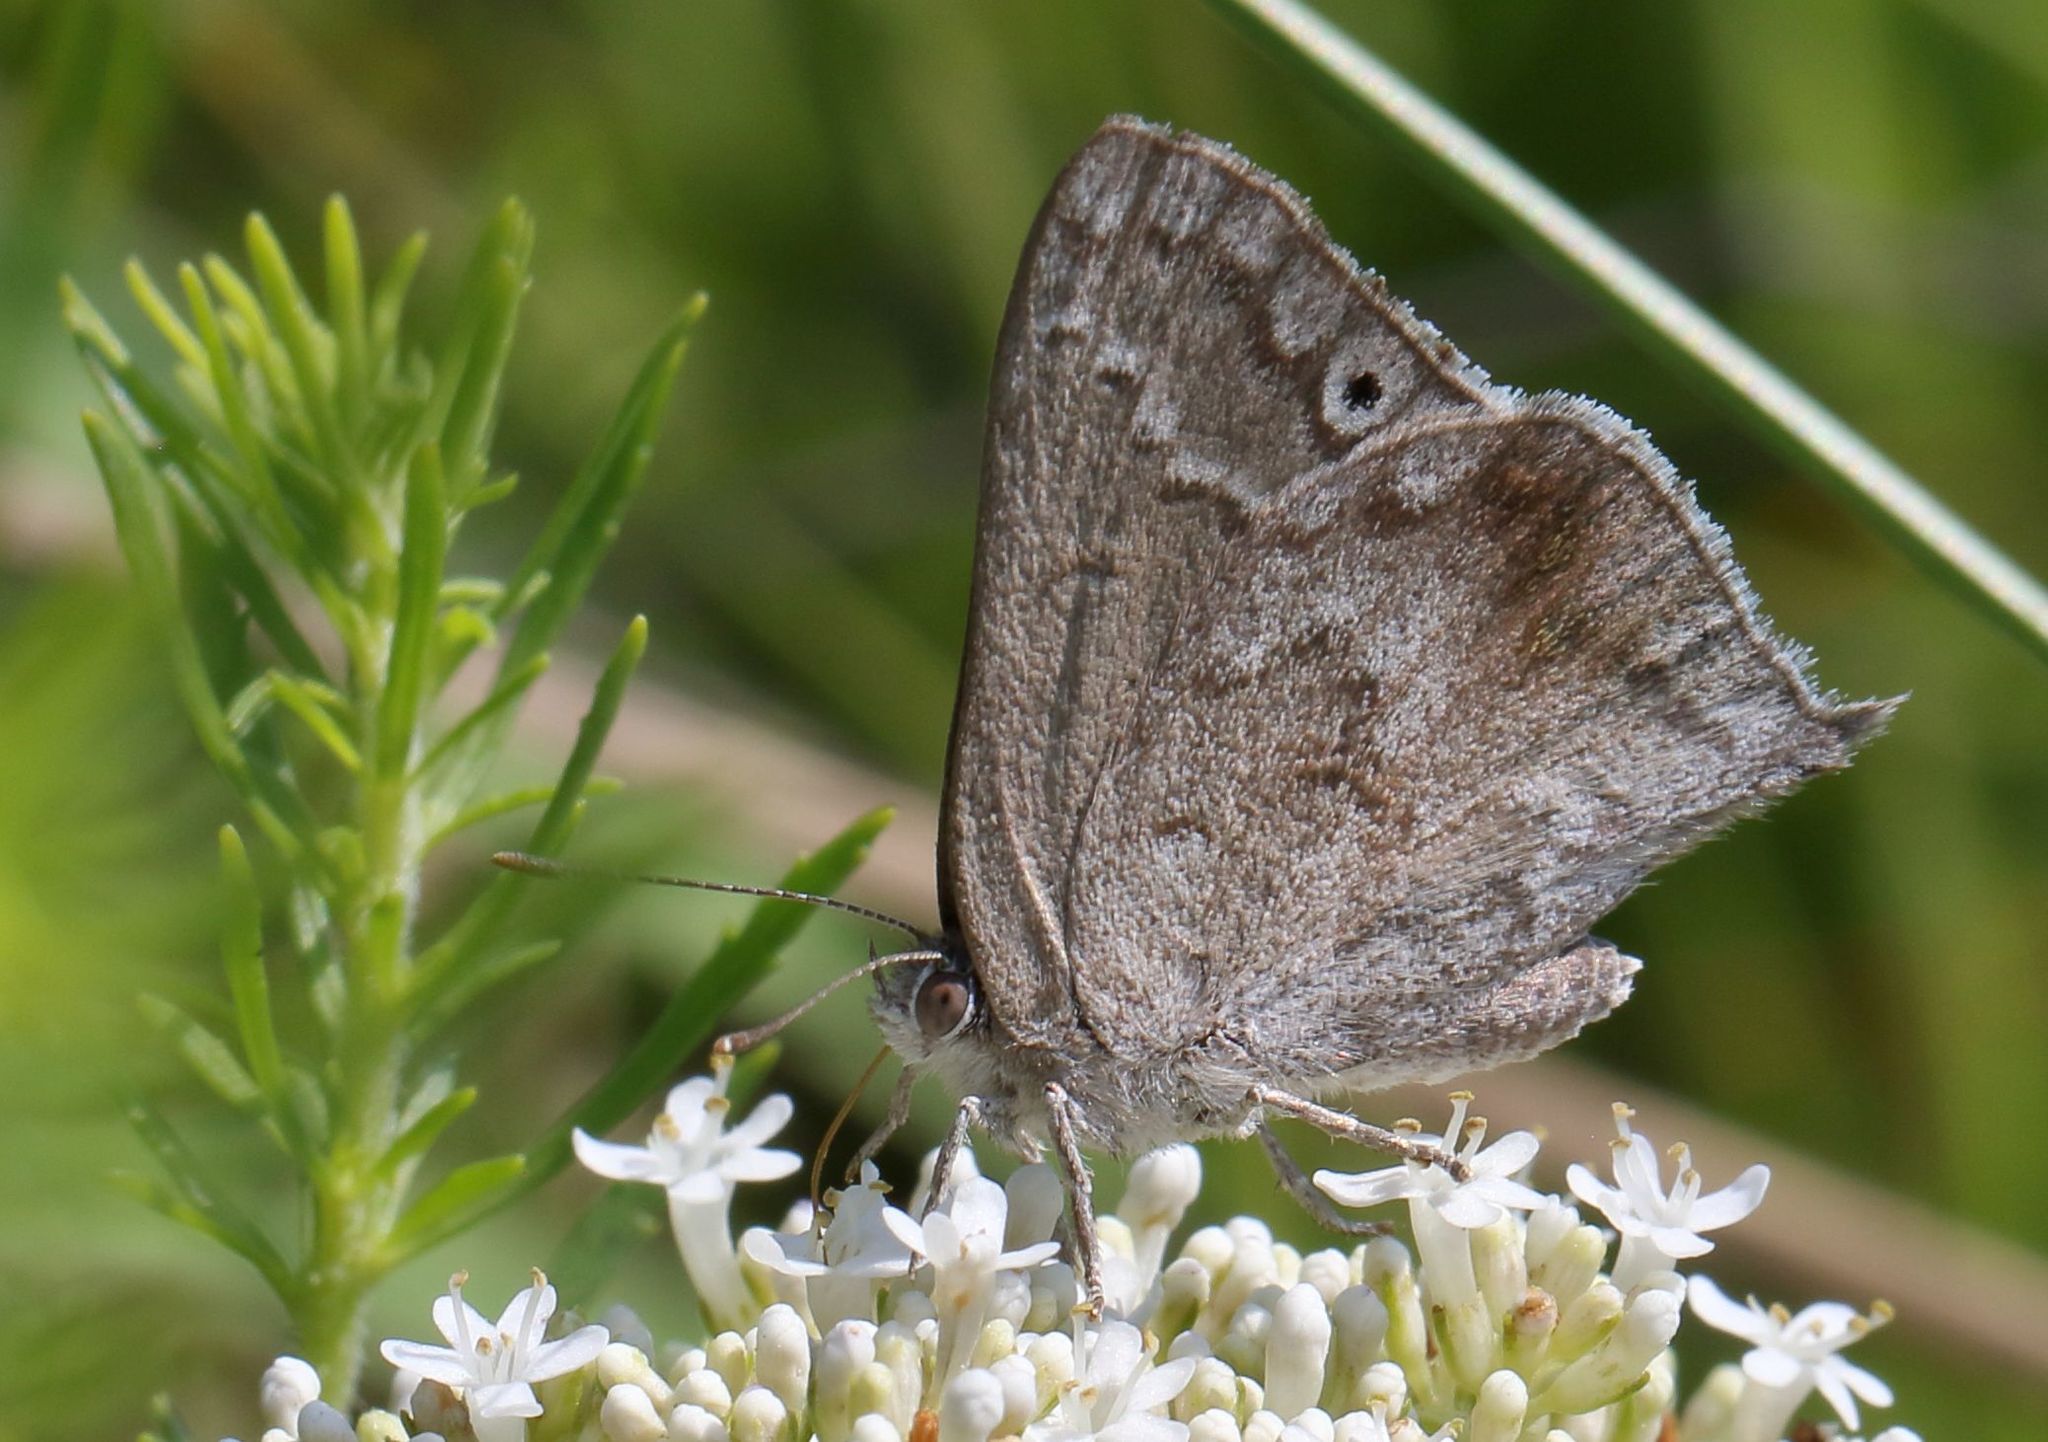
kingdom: Animalia
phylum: Arthropoda
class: Insecta
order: Lepidoptera
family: Lycaenidae
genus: Leptomyrina
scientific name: Leptomyrina gorgias
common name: Common black-eye
